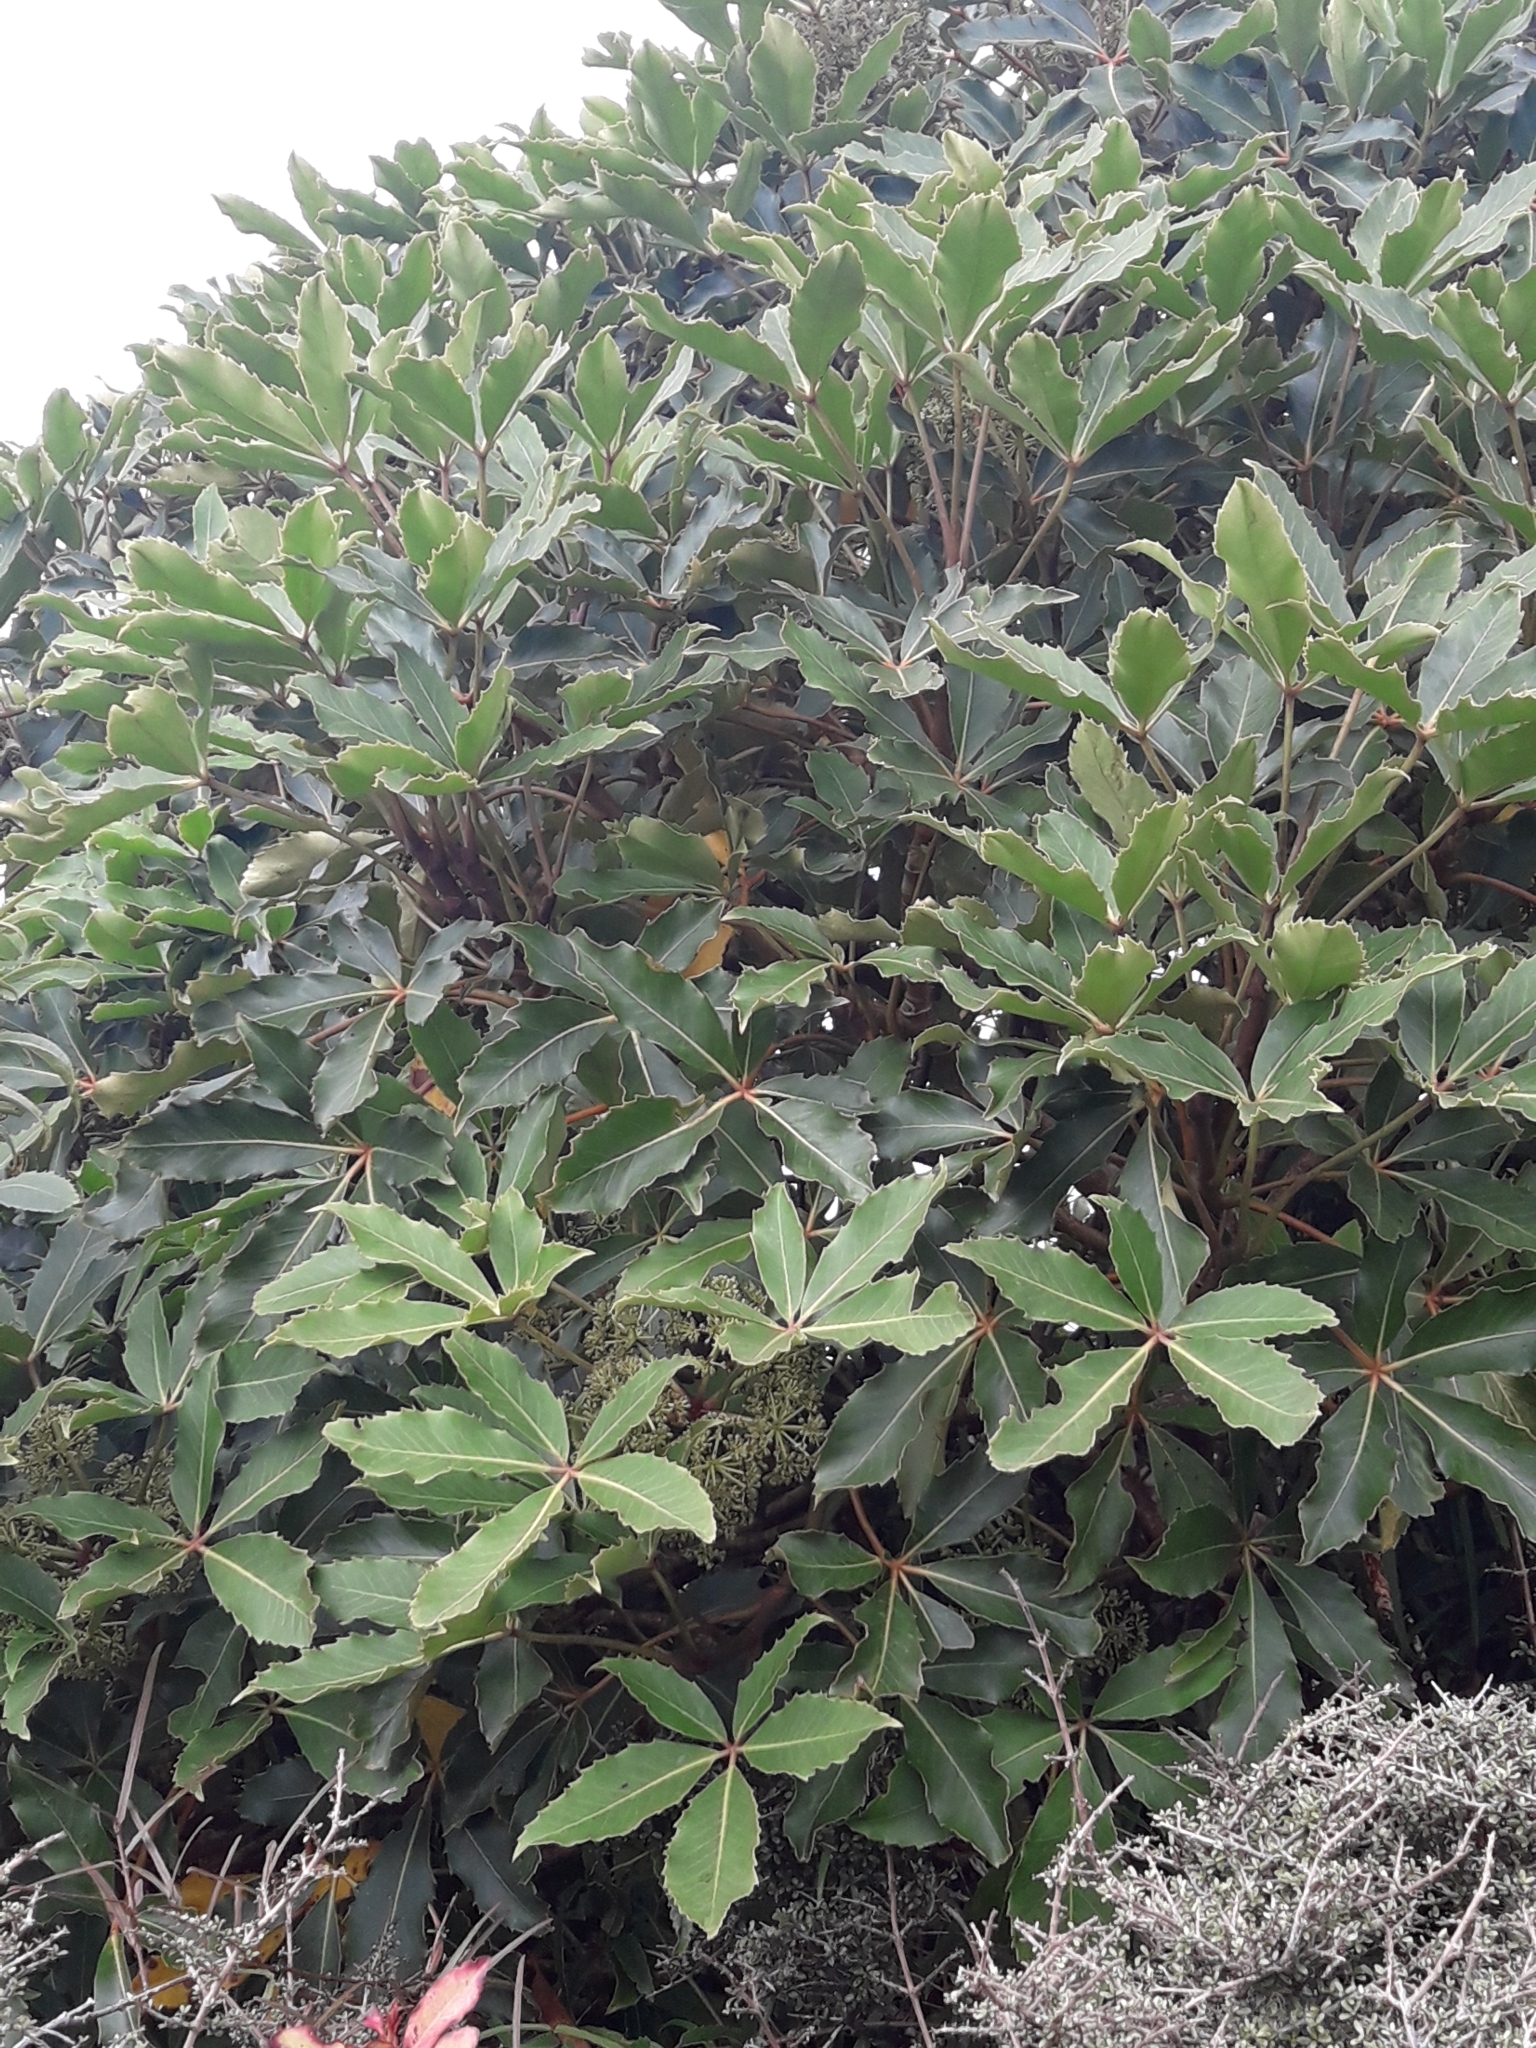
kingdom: Plantae
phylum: Tracheophyta
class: Magnoliopsida
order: Apiales
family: Araliaceae
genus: Neopanax
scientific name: Neopanax colensoi
